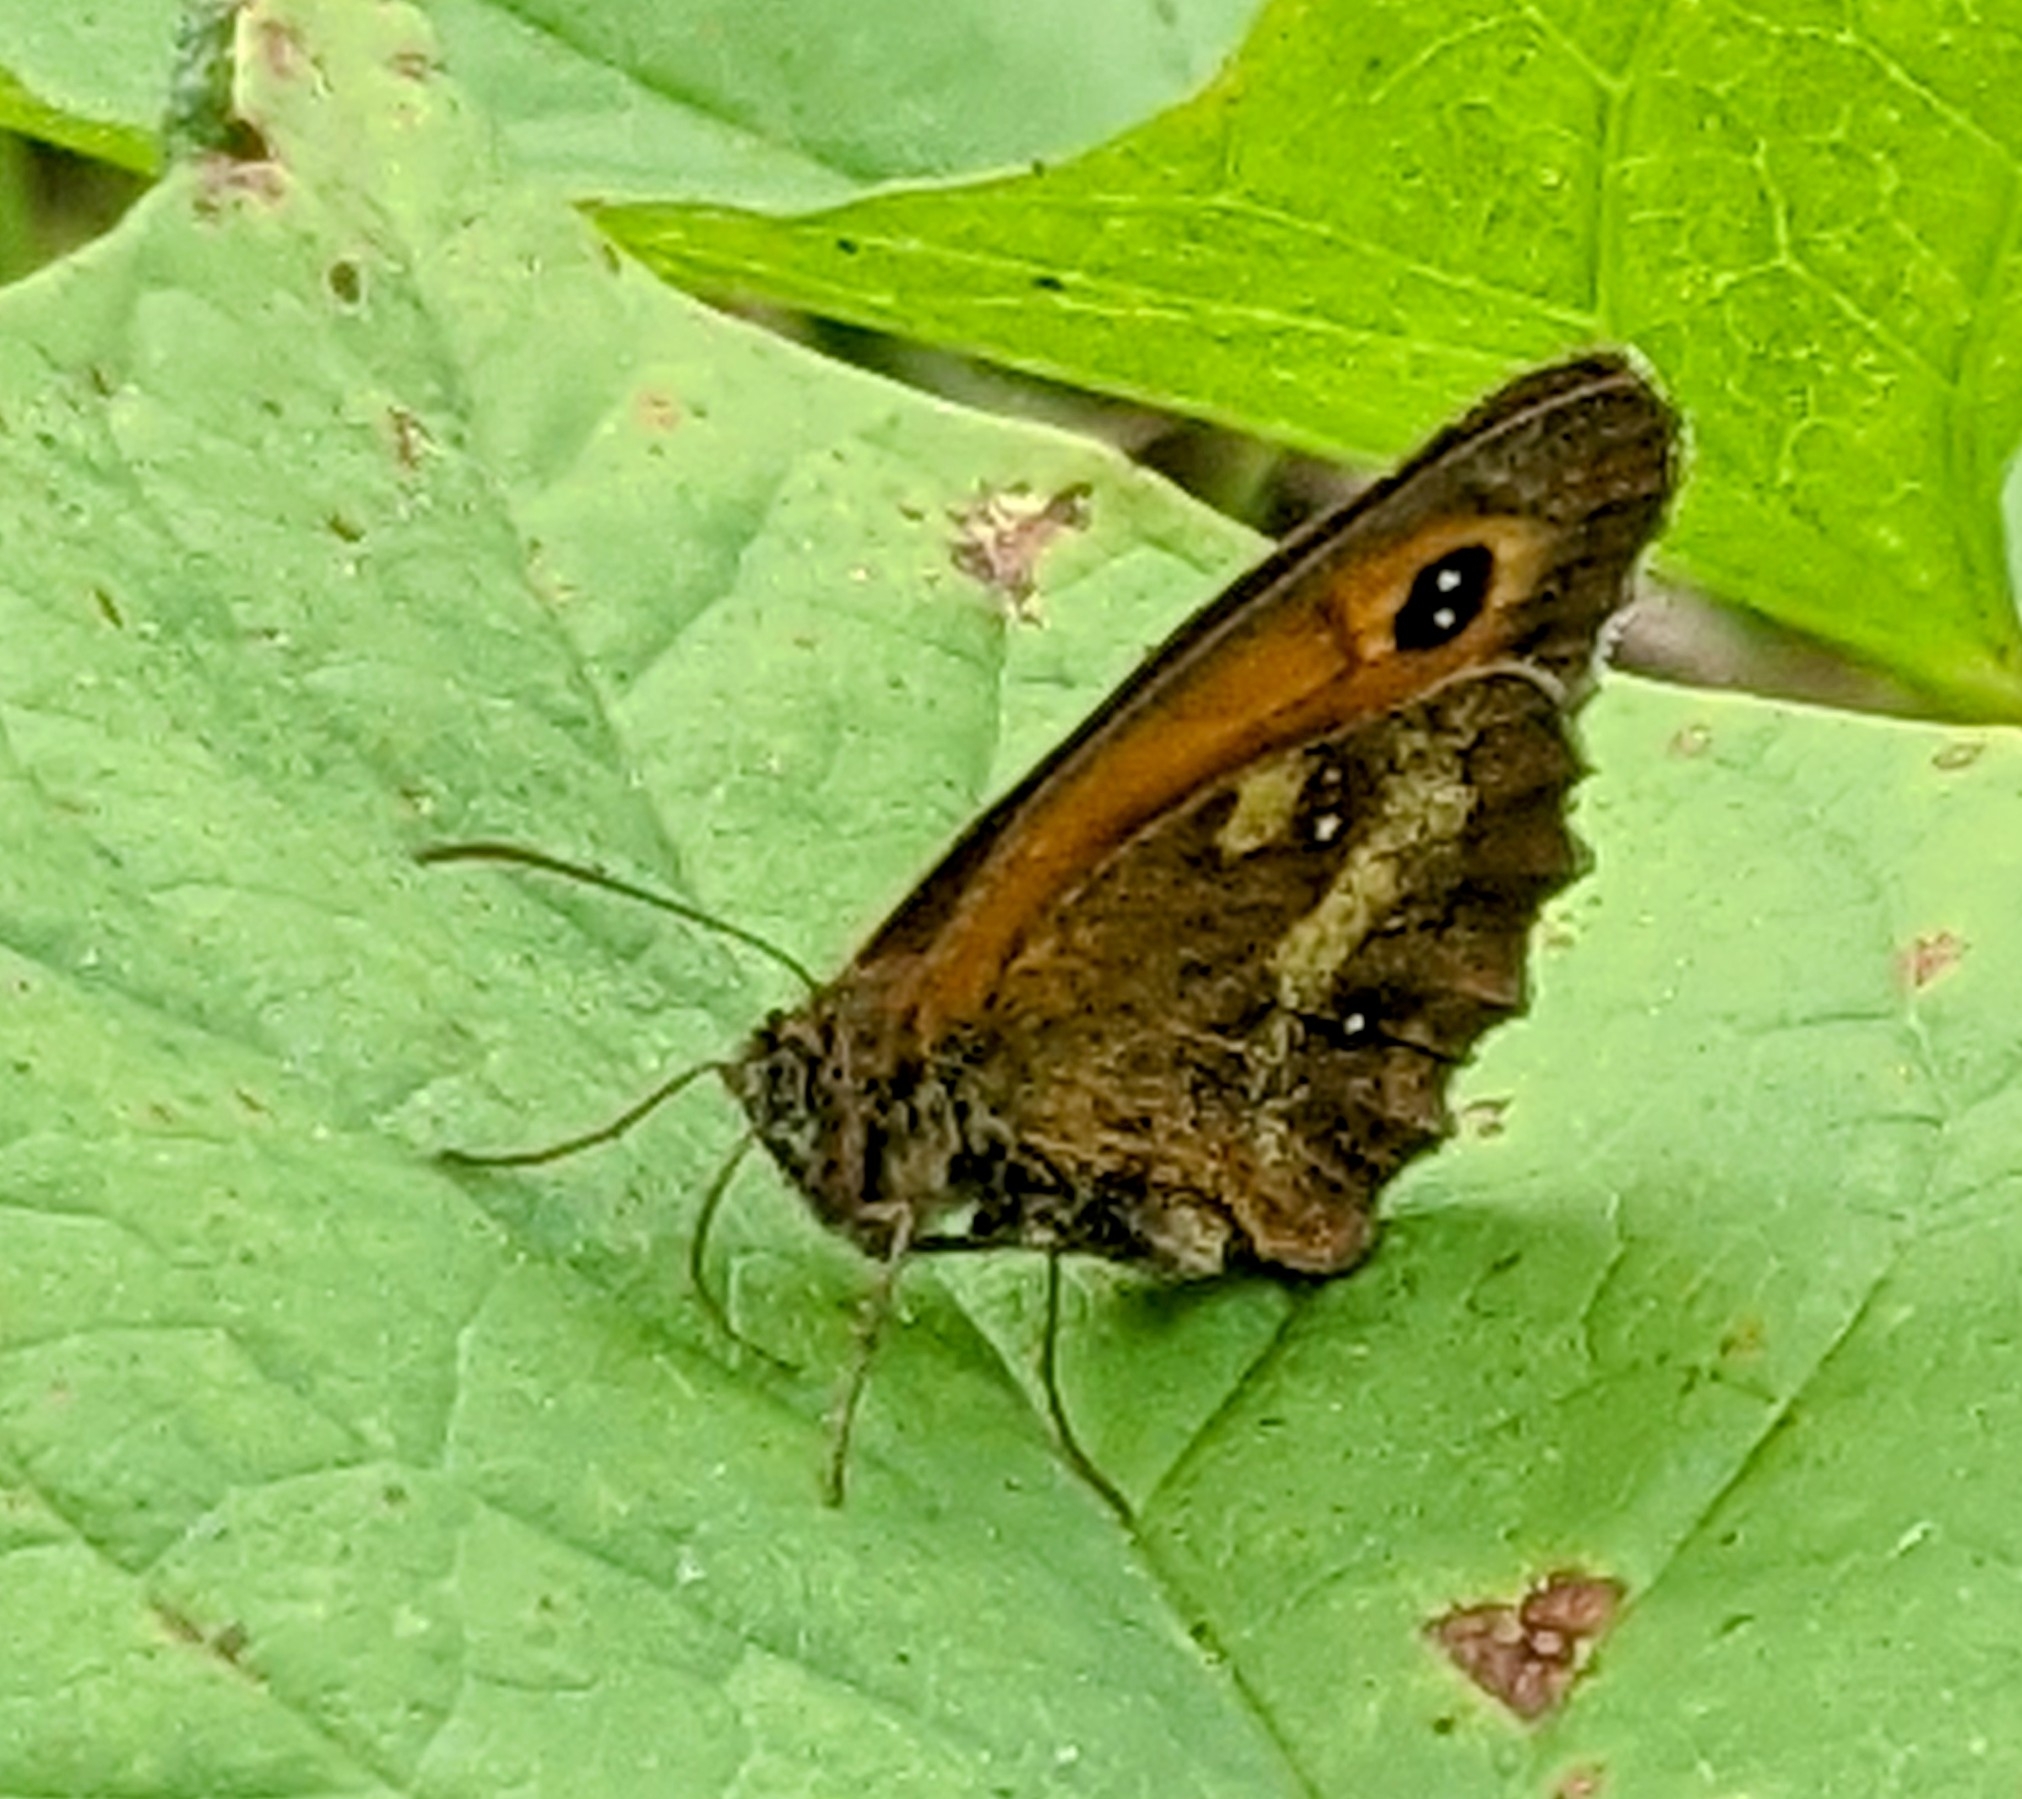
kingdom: Animalia
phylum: Arthropoda
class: Insecta
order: Lepidoptera
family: Nymphalidae
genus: Pyronia
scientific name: Pyronia tithonus
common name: Gatekeeper
